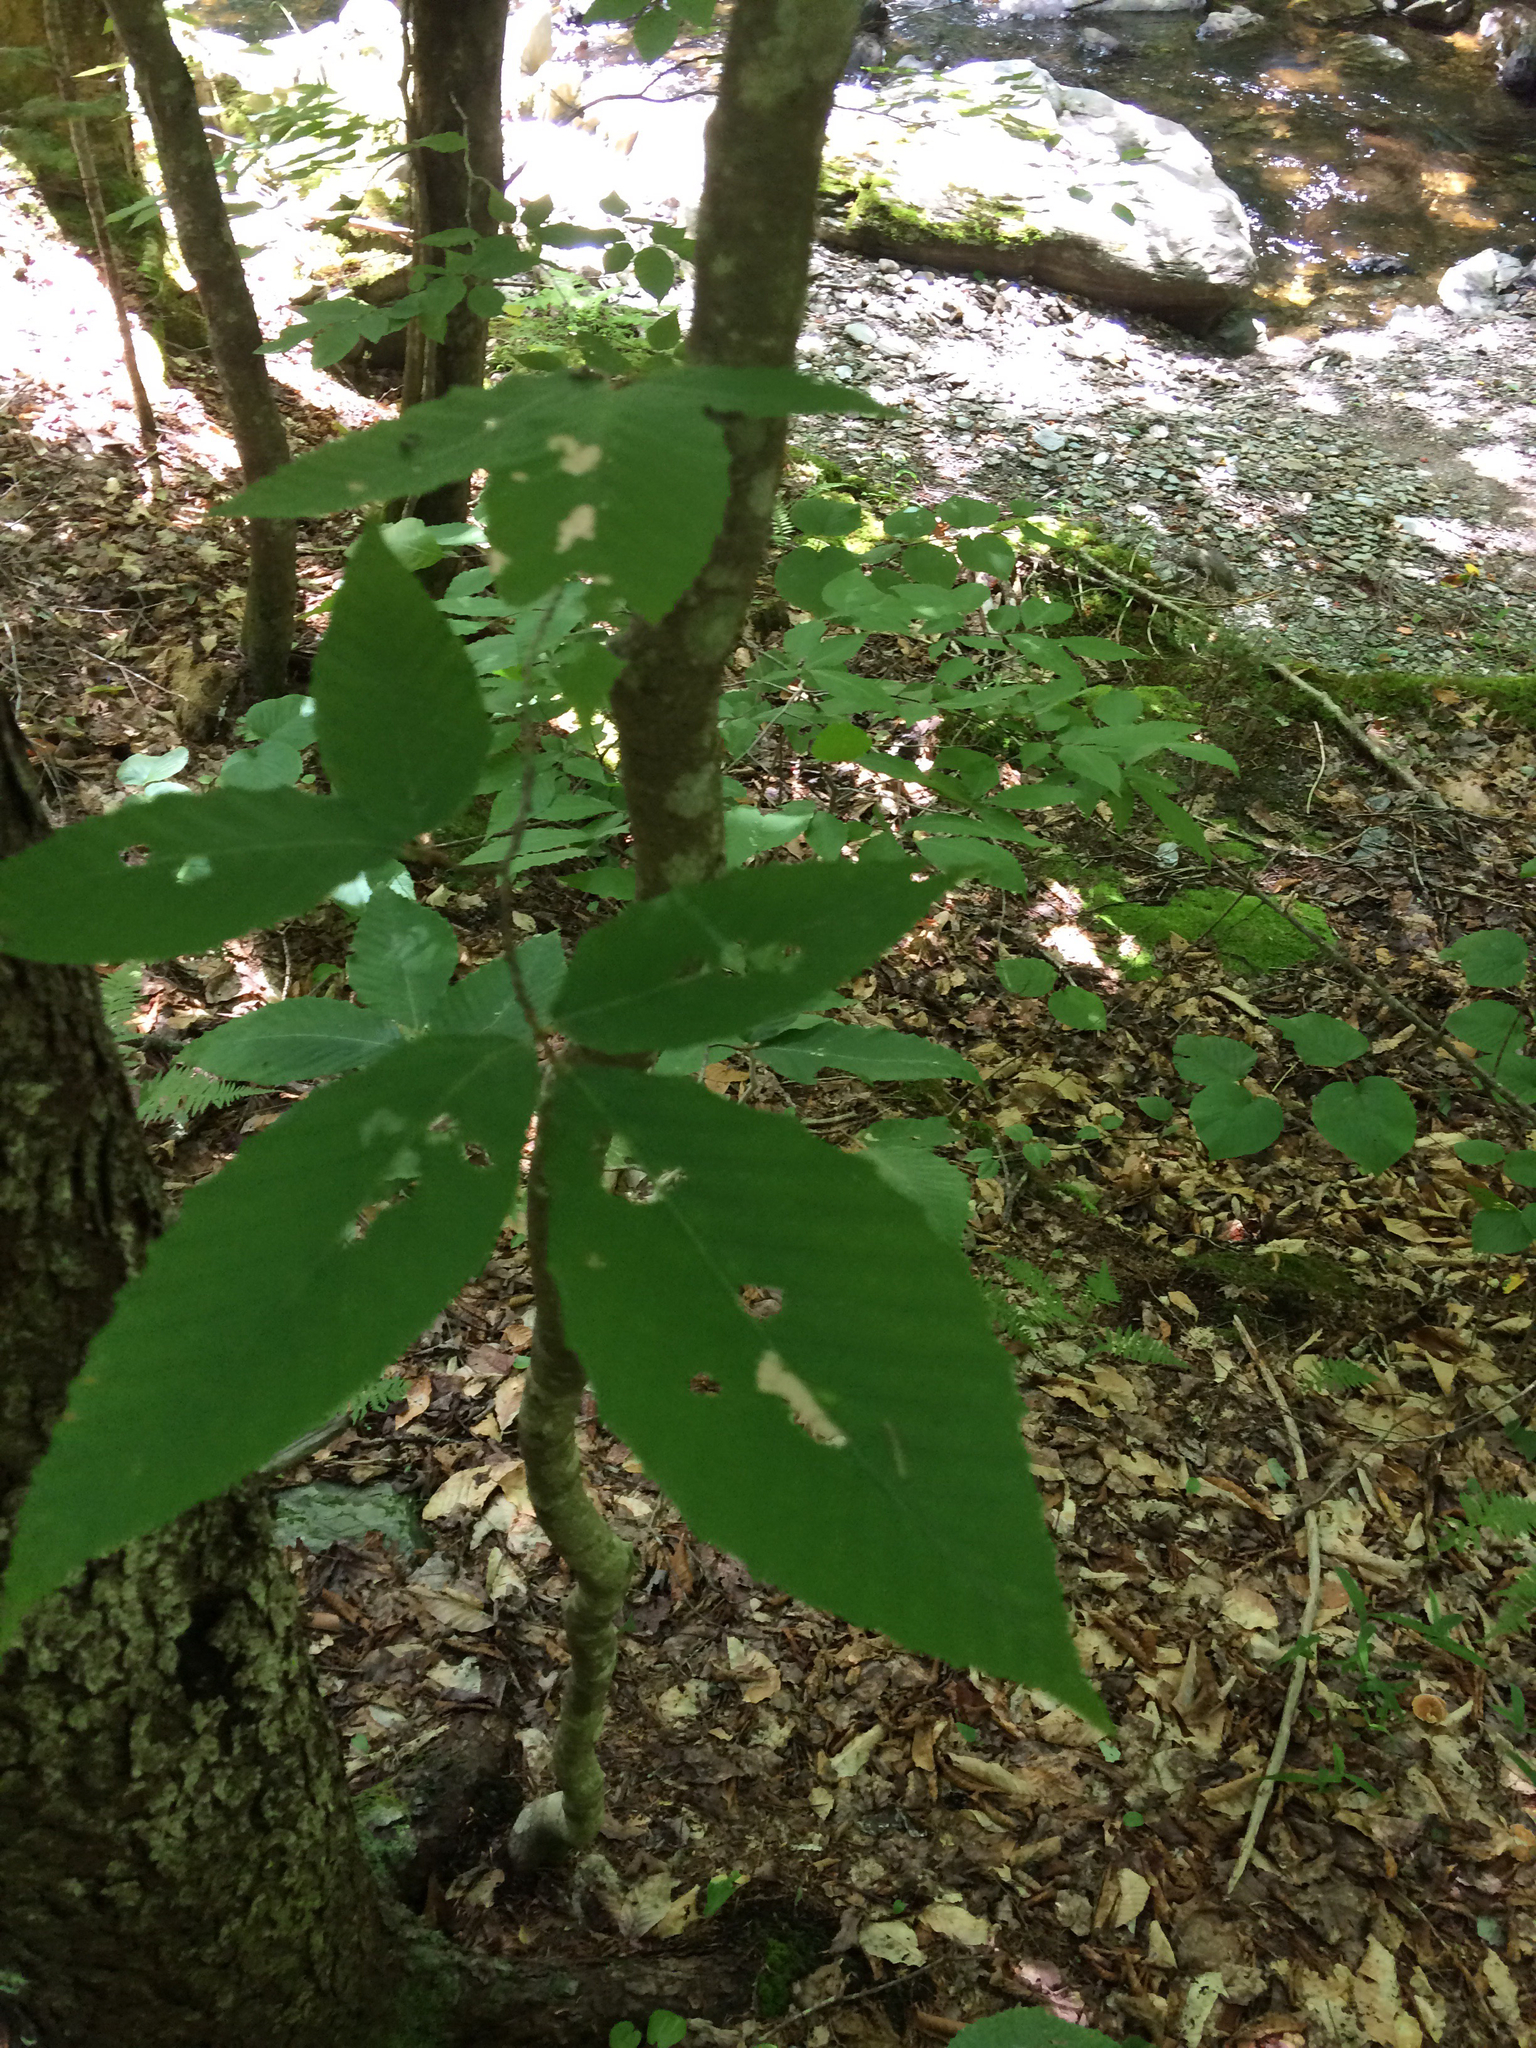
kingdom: Plantae
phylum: Tracheophyta
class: Magnoliopsida
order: Fagales
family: Fagaceae
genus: Fagus
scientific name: Fagus grandifolia
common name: American beech
